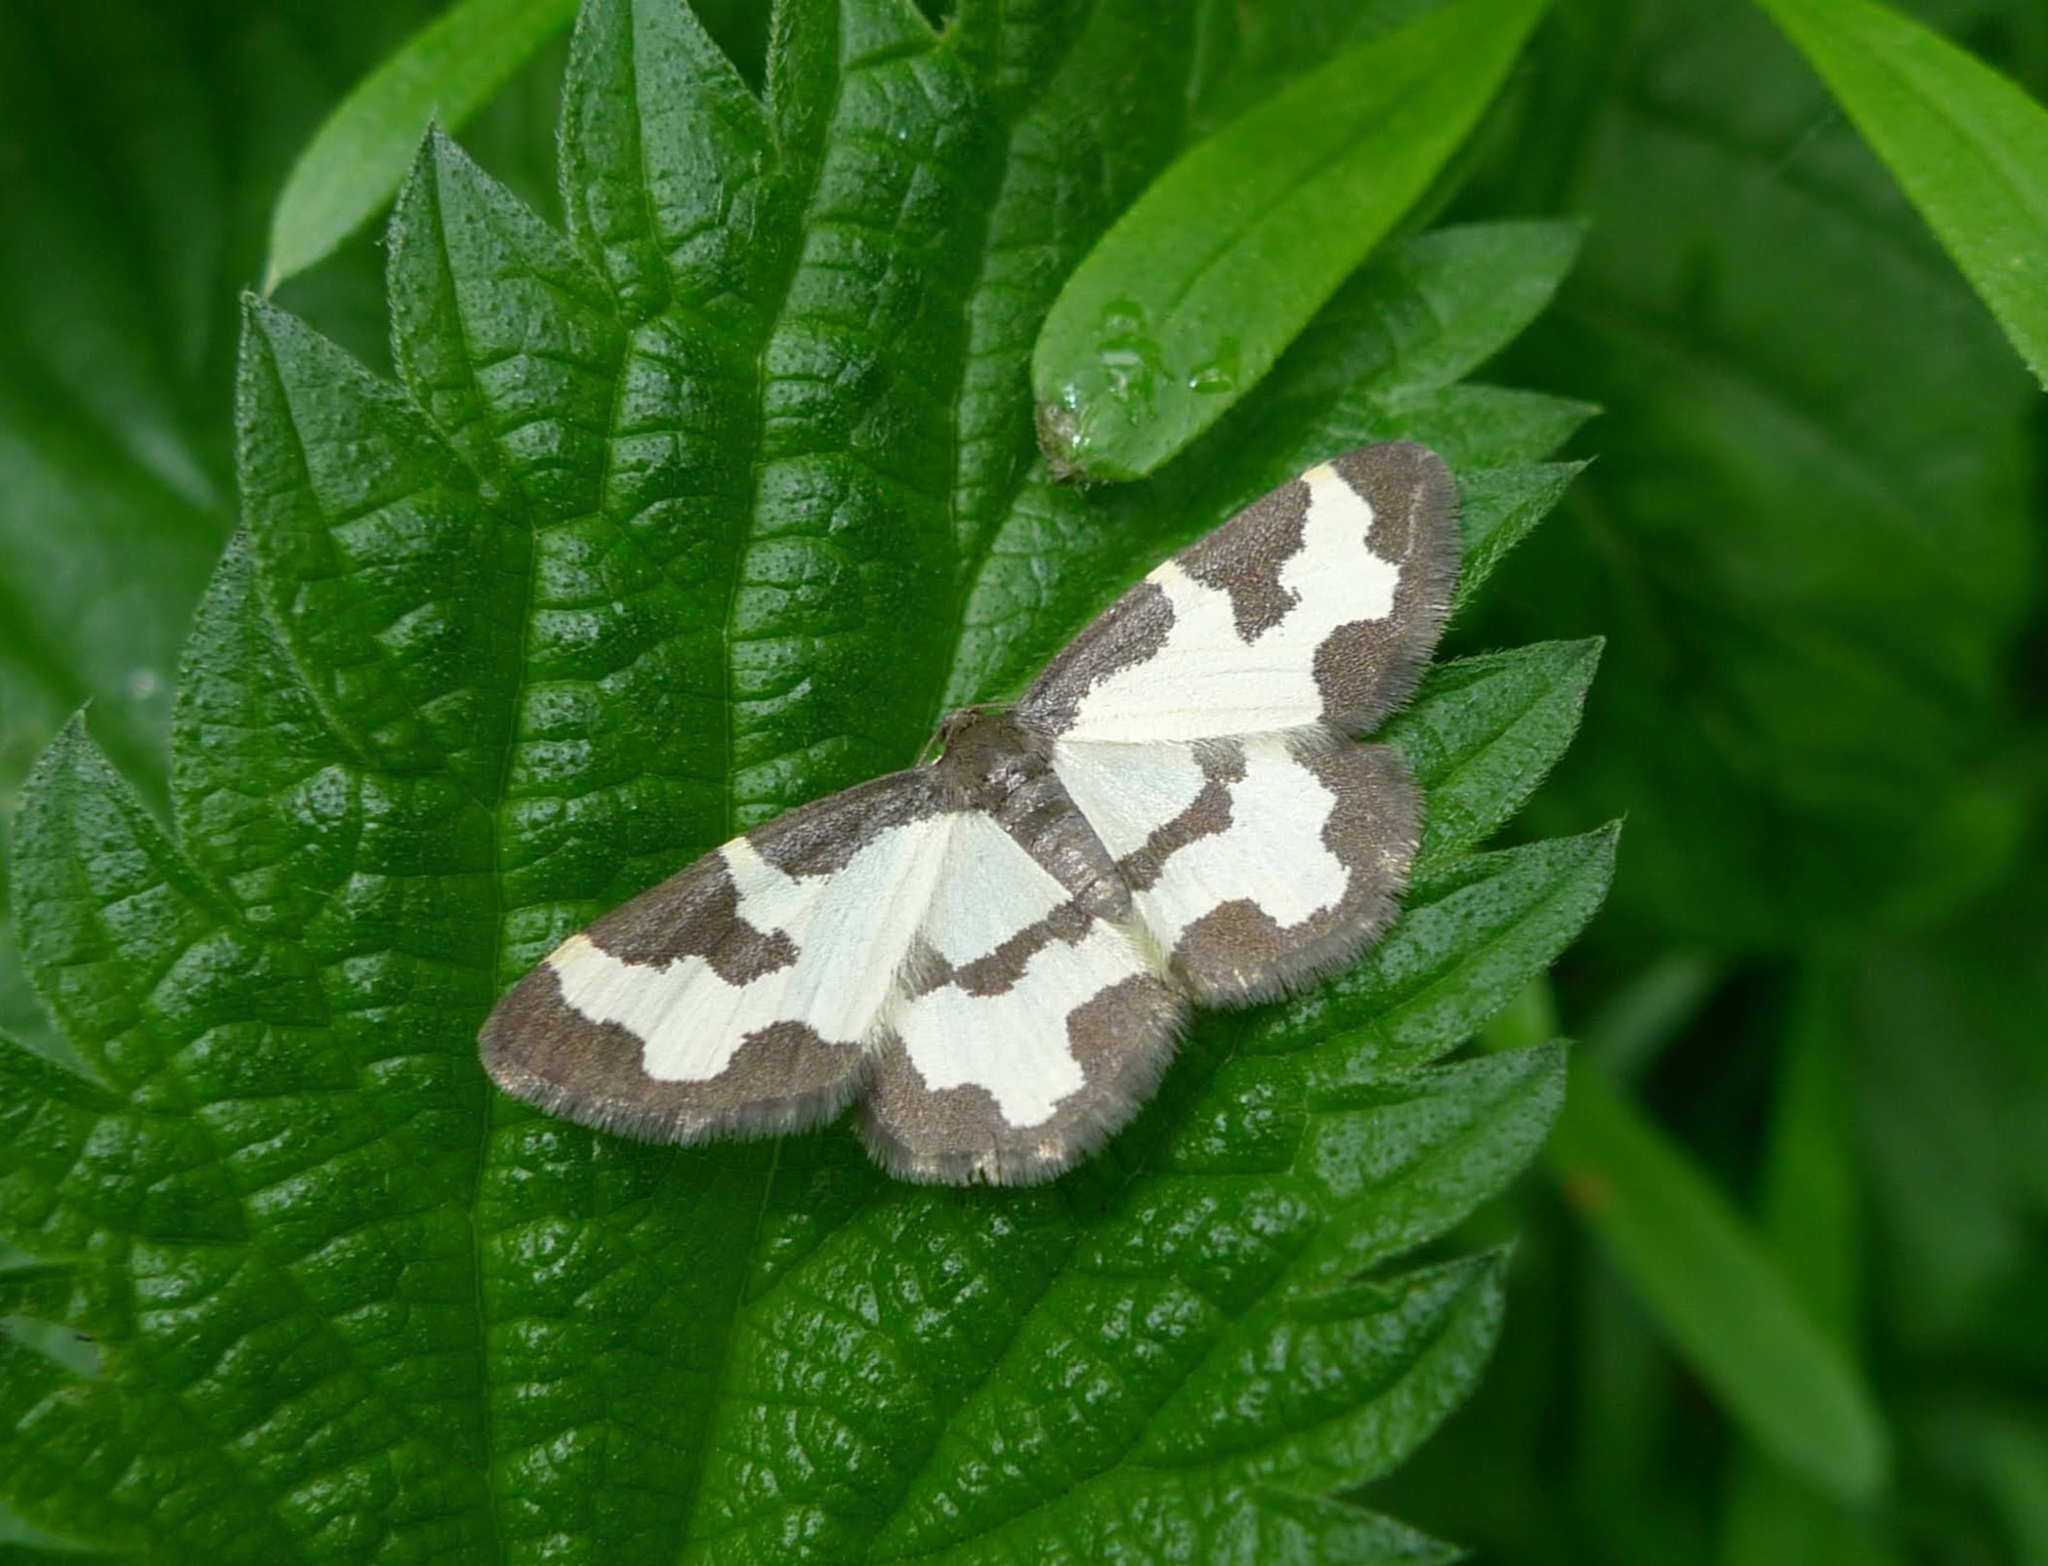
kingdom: Animalia
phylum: Arthropoda
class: Insecta
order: Lepidoptera
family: Geometridae
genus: Lomaspilis
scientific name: Lomaspilis marginata
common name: Clouded border
